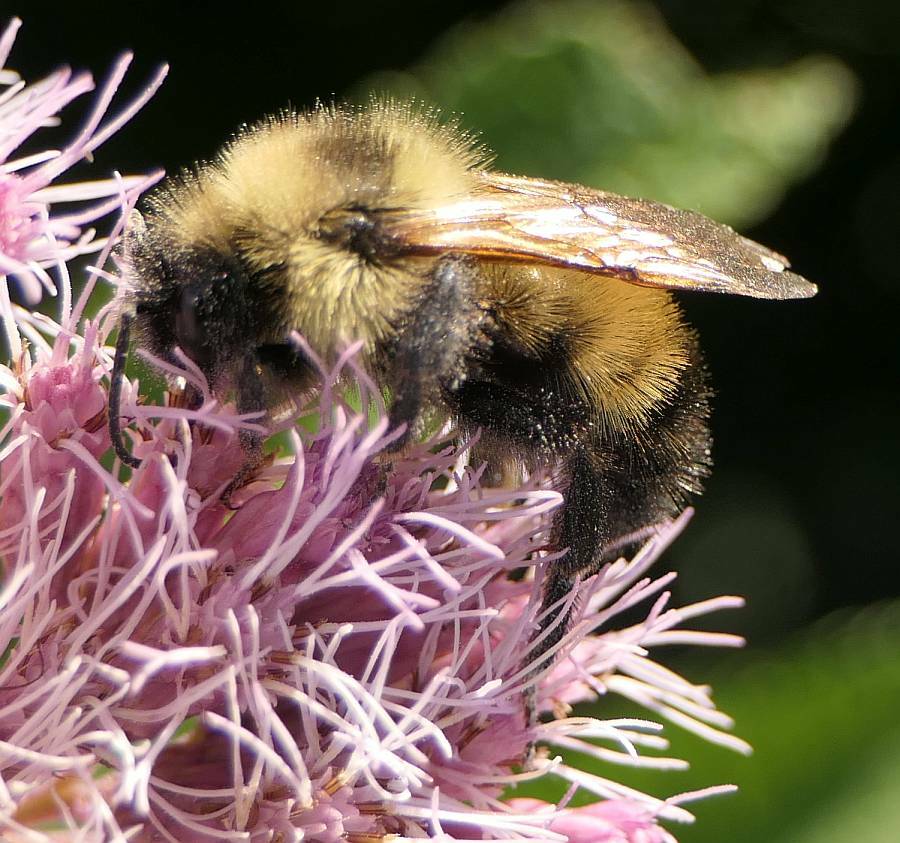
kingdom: Animalia
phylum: Arthropoda
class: Insecta
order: Hymenoptera
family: Apidae
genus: Bombus
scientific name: Bombus citrinus
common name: Lemon cuckoo bumble bee
